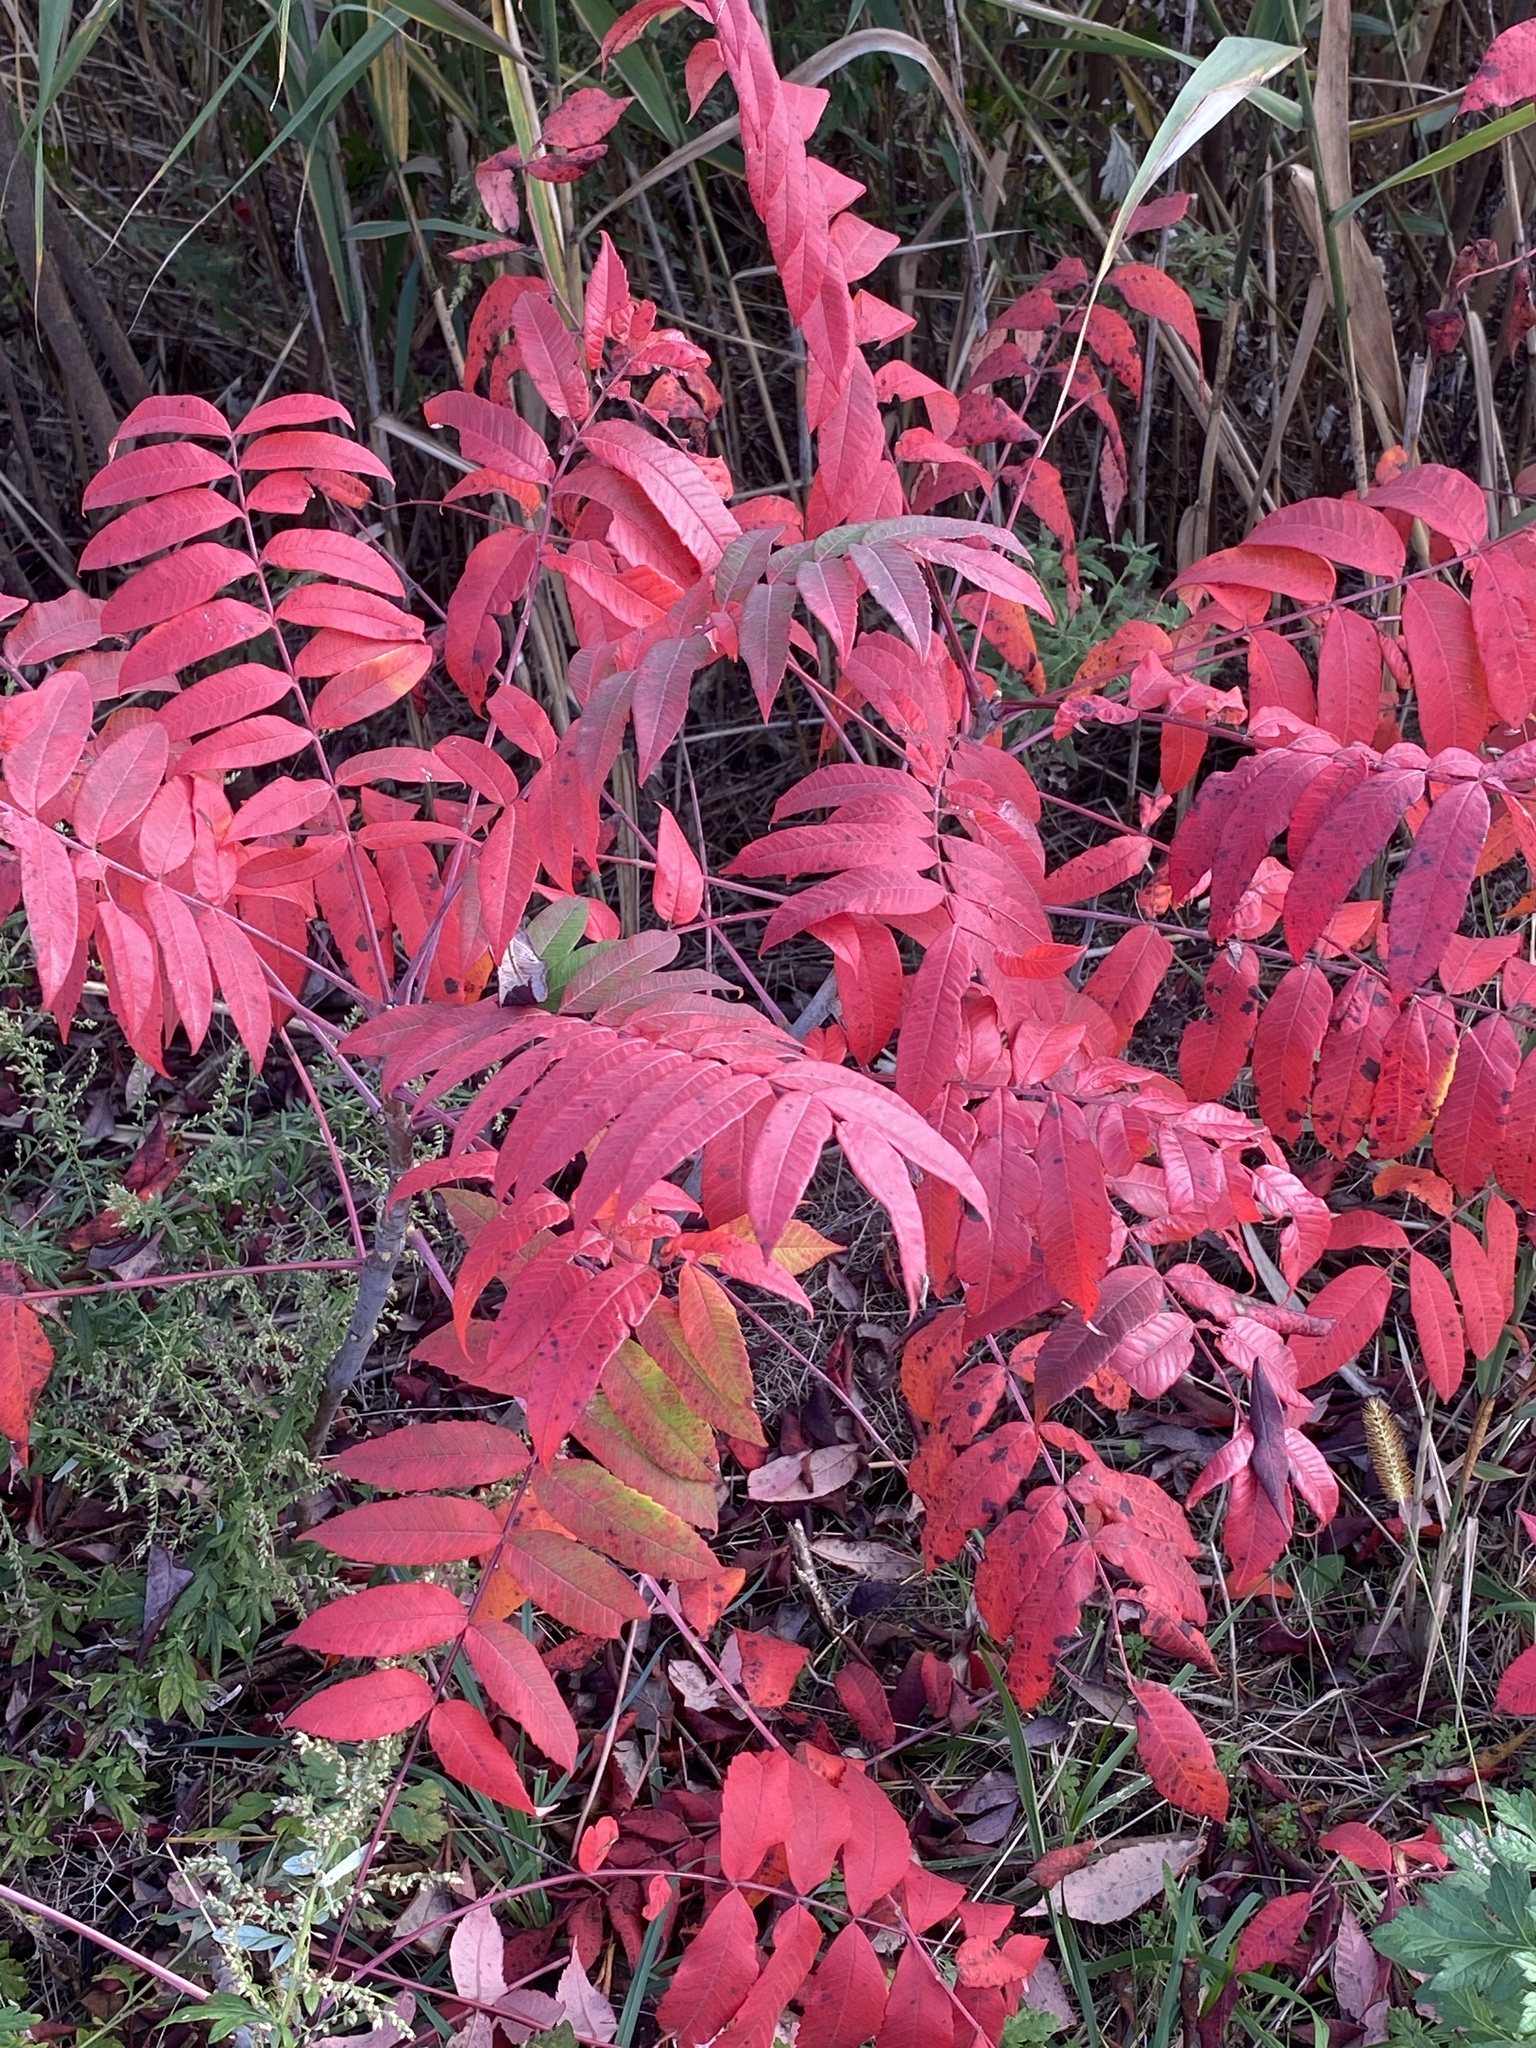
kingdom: Plantae
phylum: Tracheophyta
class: Magnoliopsida
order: Sapindales
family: Anacardiaceae
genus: Rhus
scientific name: Rhus glabra
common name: Scarlet sumac
